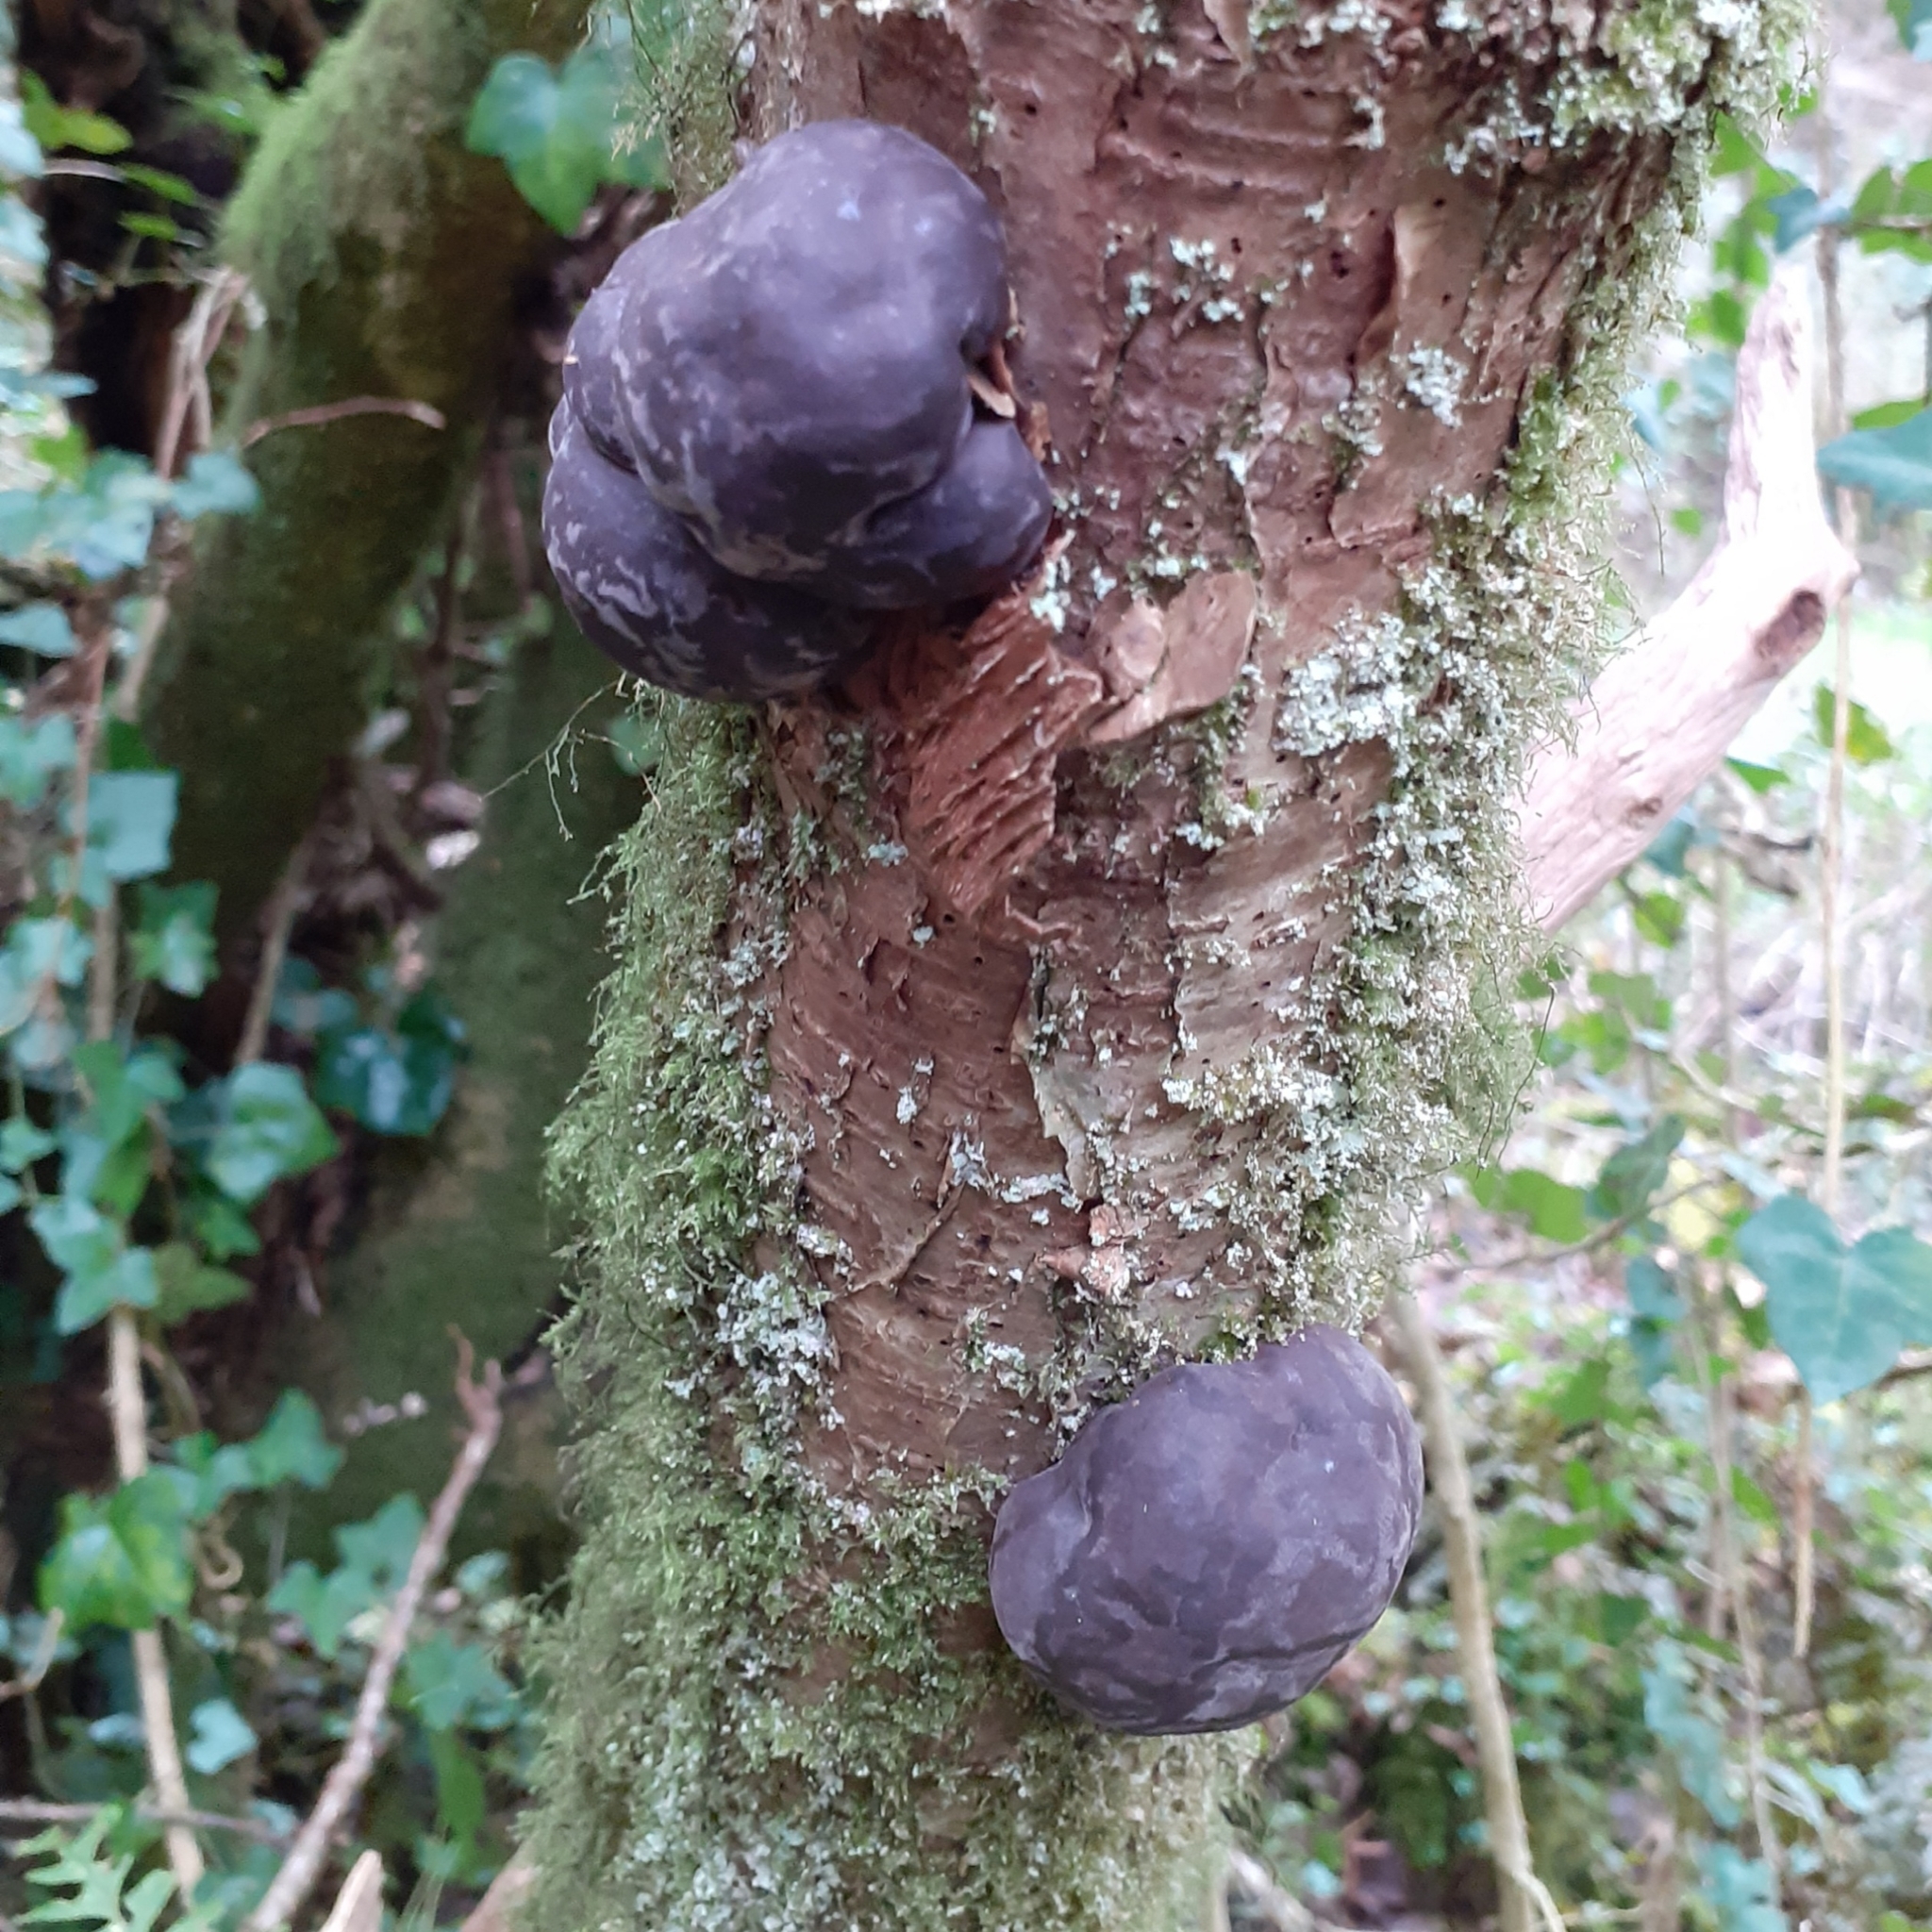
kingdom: Fungi
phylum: Ascomycota
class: Sordariomycetes
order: Xylariales
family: Hypoxylaceae
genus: Daldinia
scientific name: Daldinia concentrica
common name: Cramp balls
